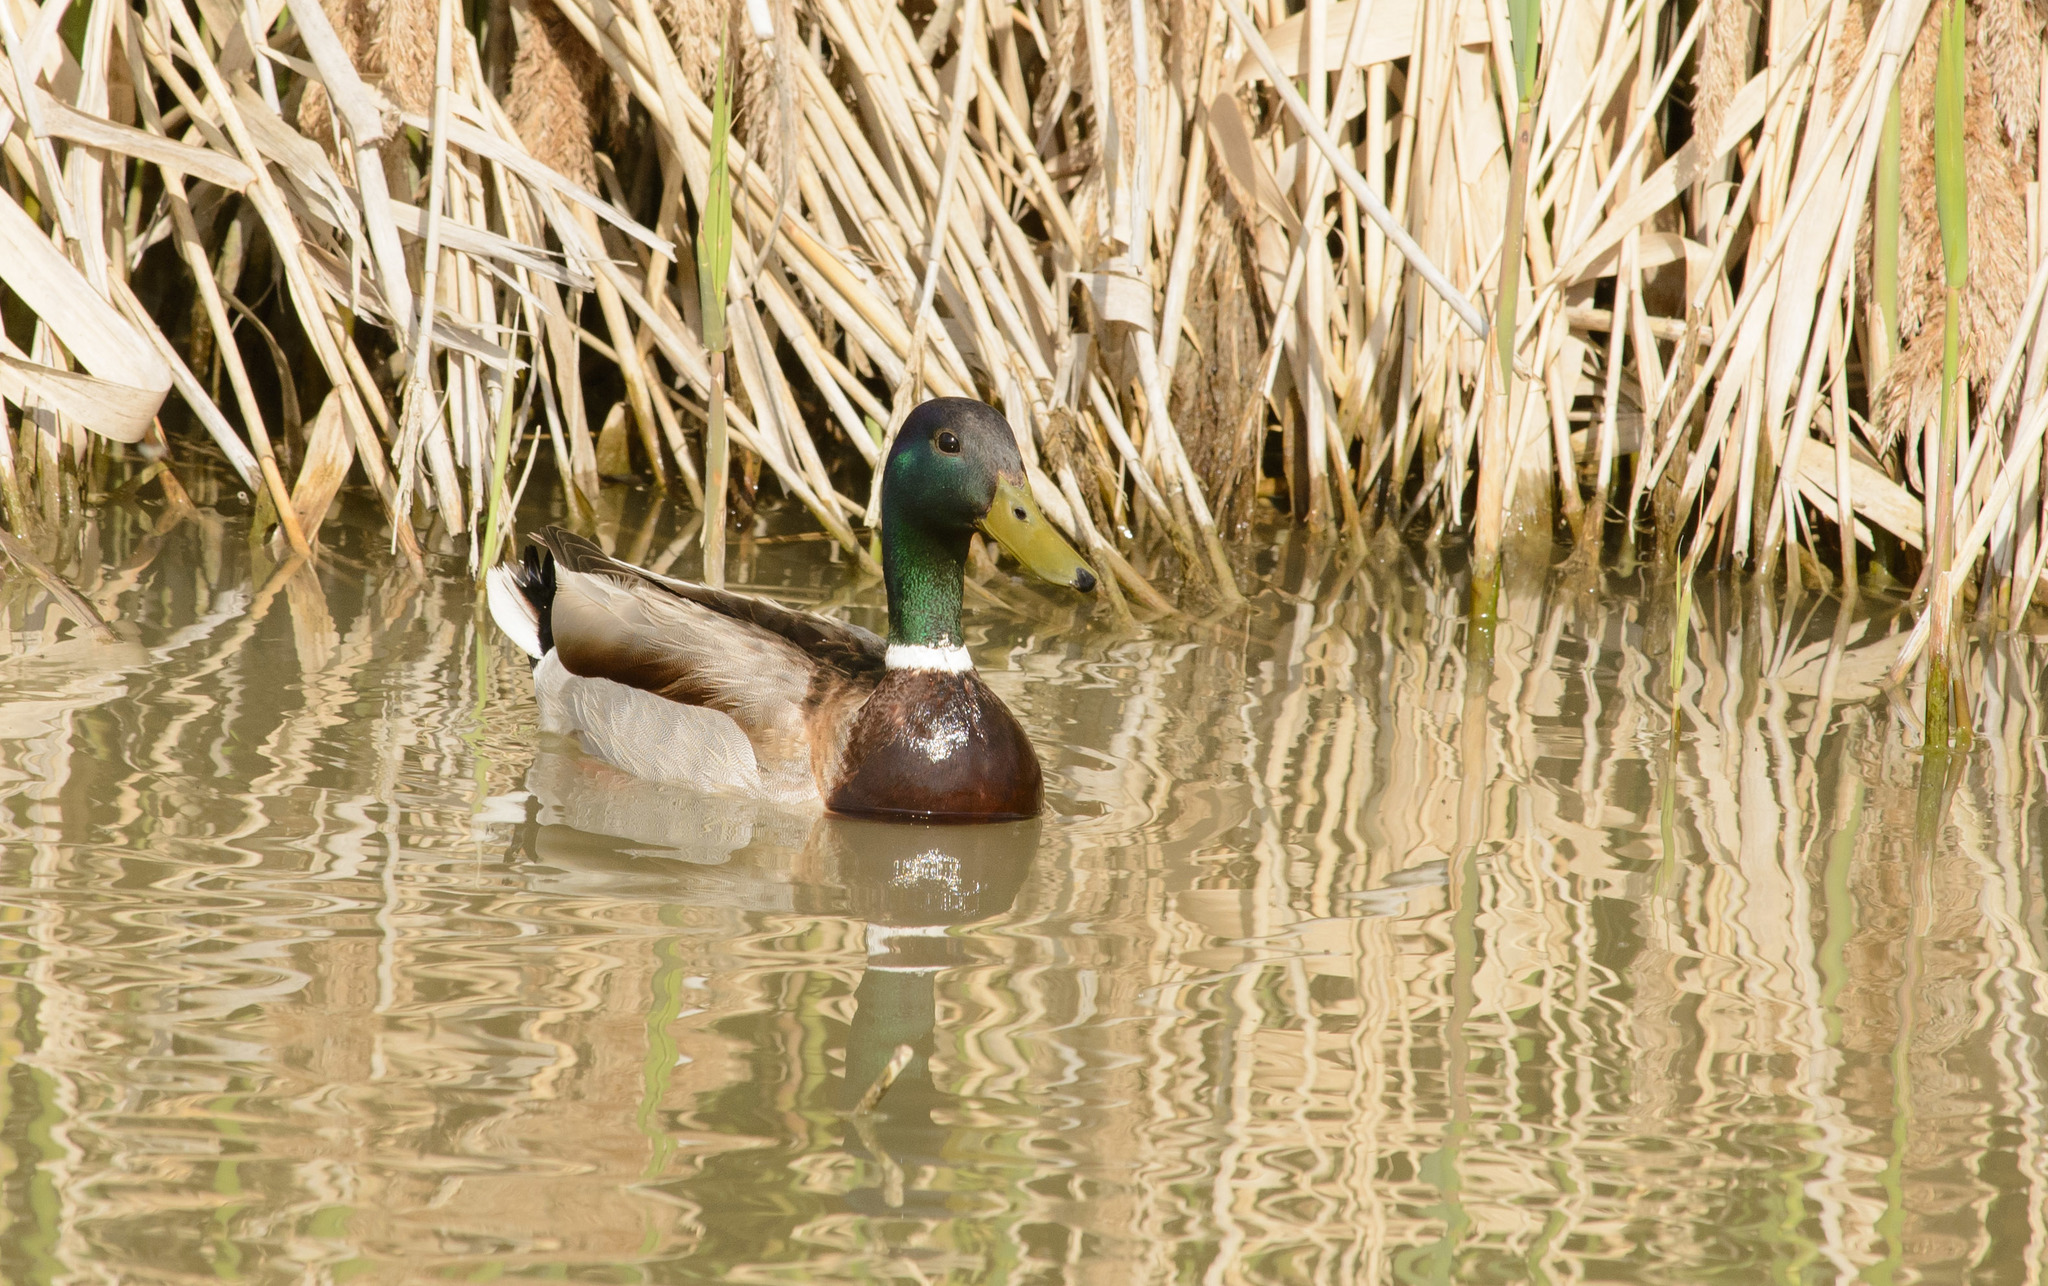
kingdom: Animalia
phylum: Chordata
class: Aves
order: Anseriformes
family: Anatidae
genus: Anas
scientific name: Anas platyrhynchos
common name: Mallard
